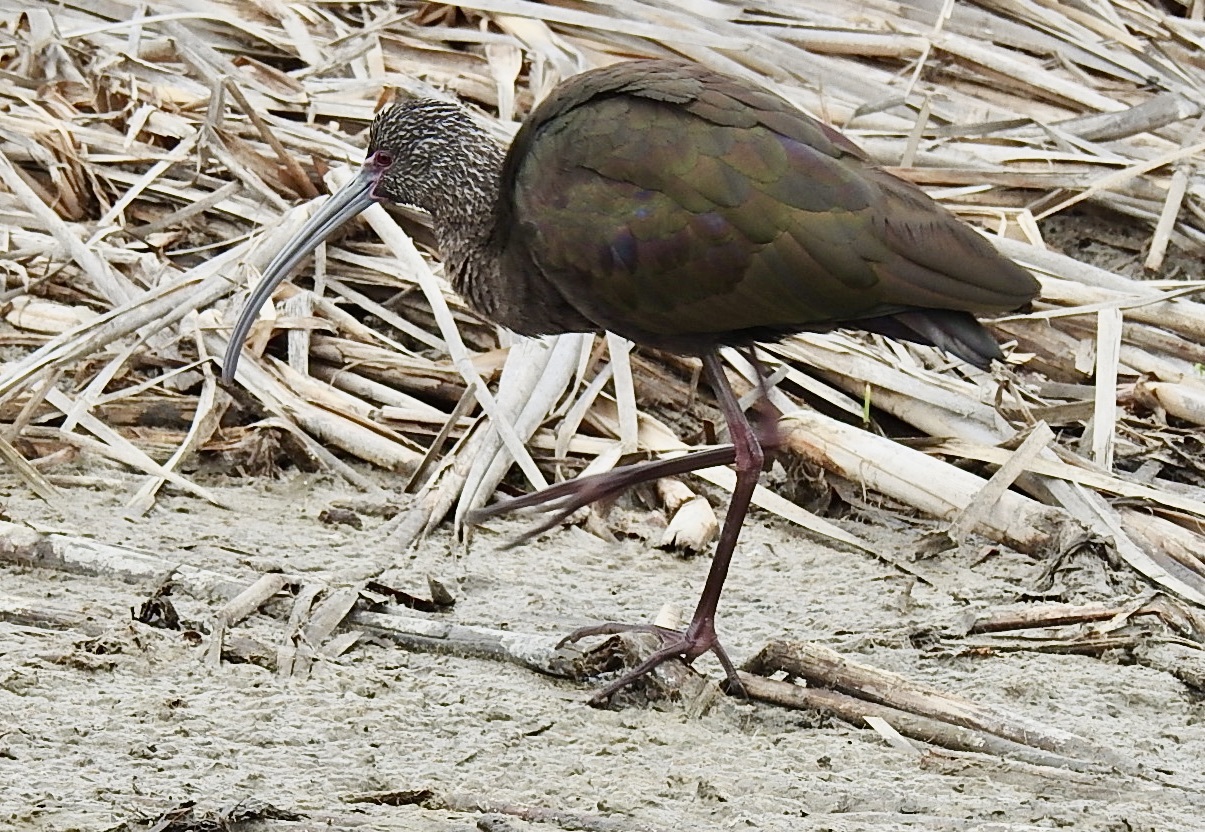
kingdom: Animalia
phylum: Chordata
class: Aves
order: Pelecaniformes
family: Threskiornithidae
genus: Plegadis
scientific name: Plegadis chihi
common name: White-faced ibis
